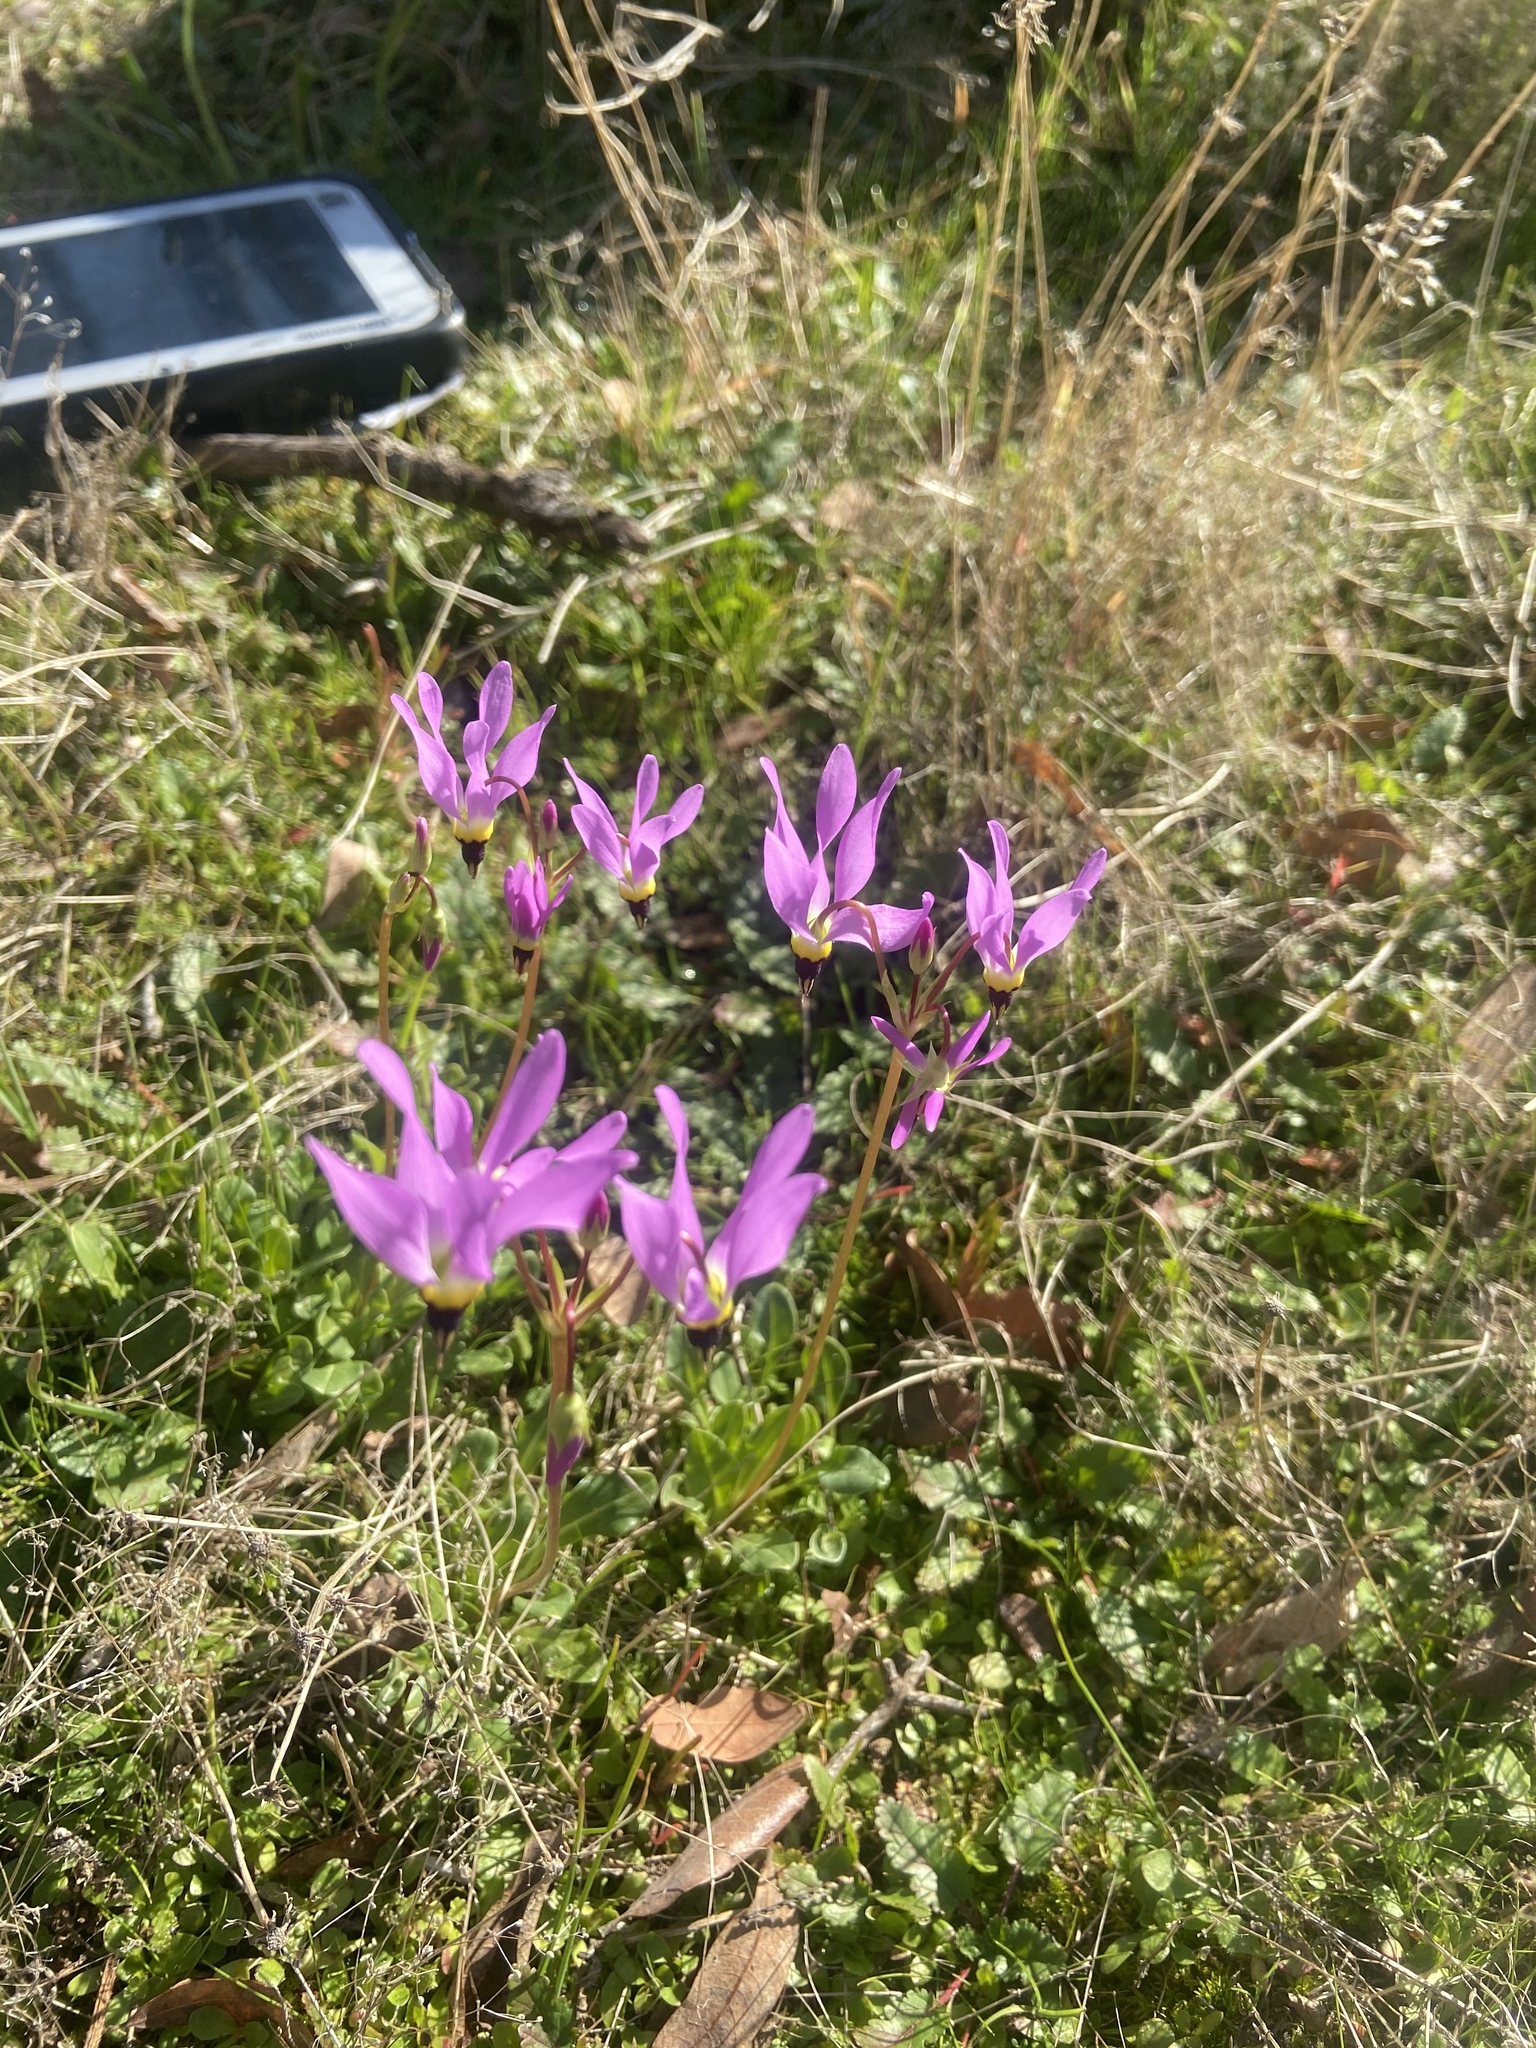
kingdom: Plantae
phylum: Tracheophyta
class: Magnoliopsida
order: Ericales
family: Primulaceae
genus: Dodecatheon
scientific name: Dodecatheon clevelandii
